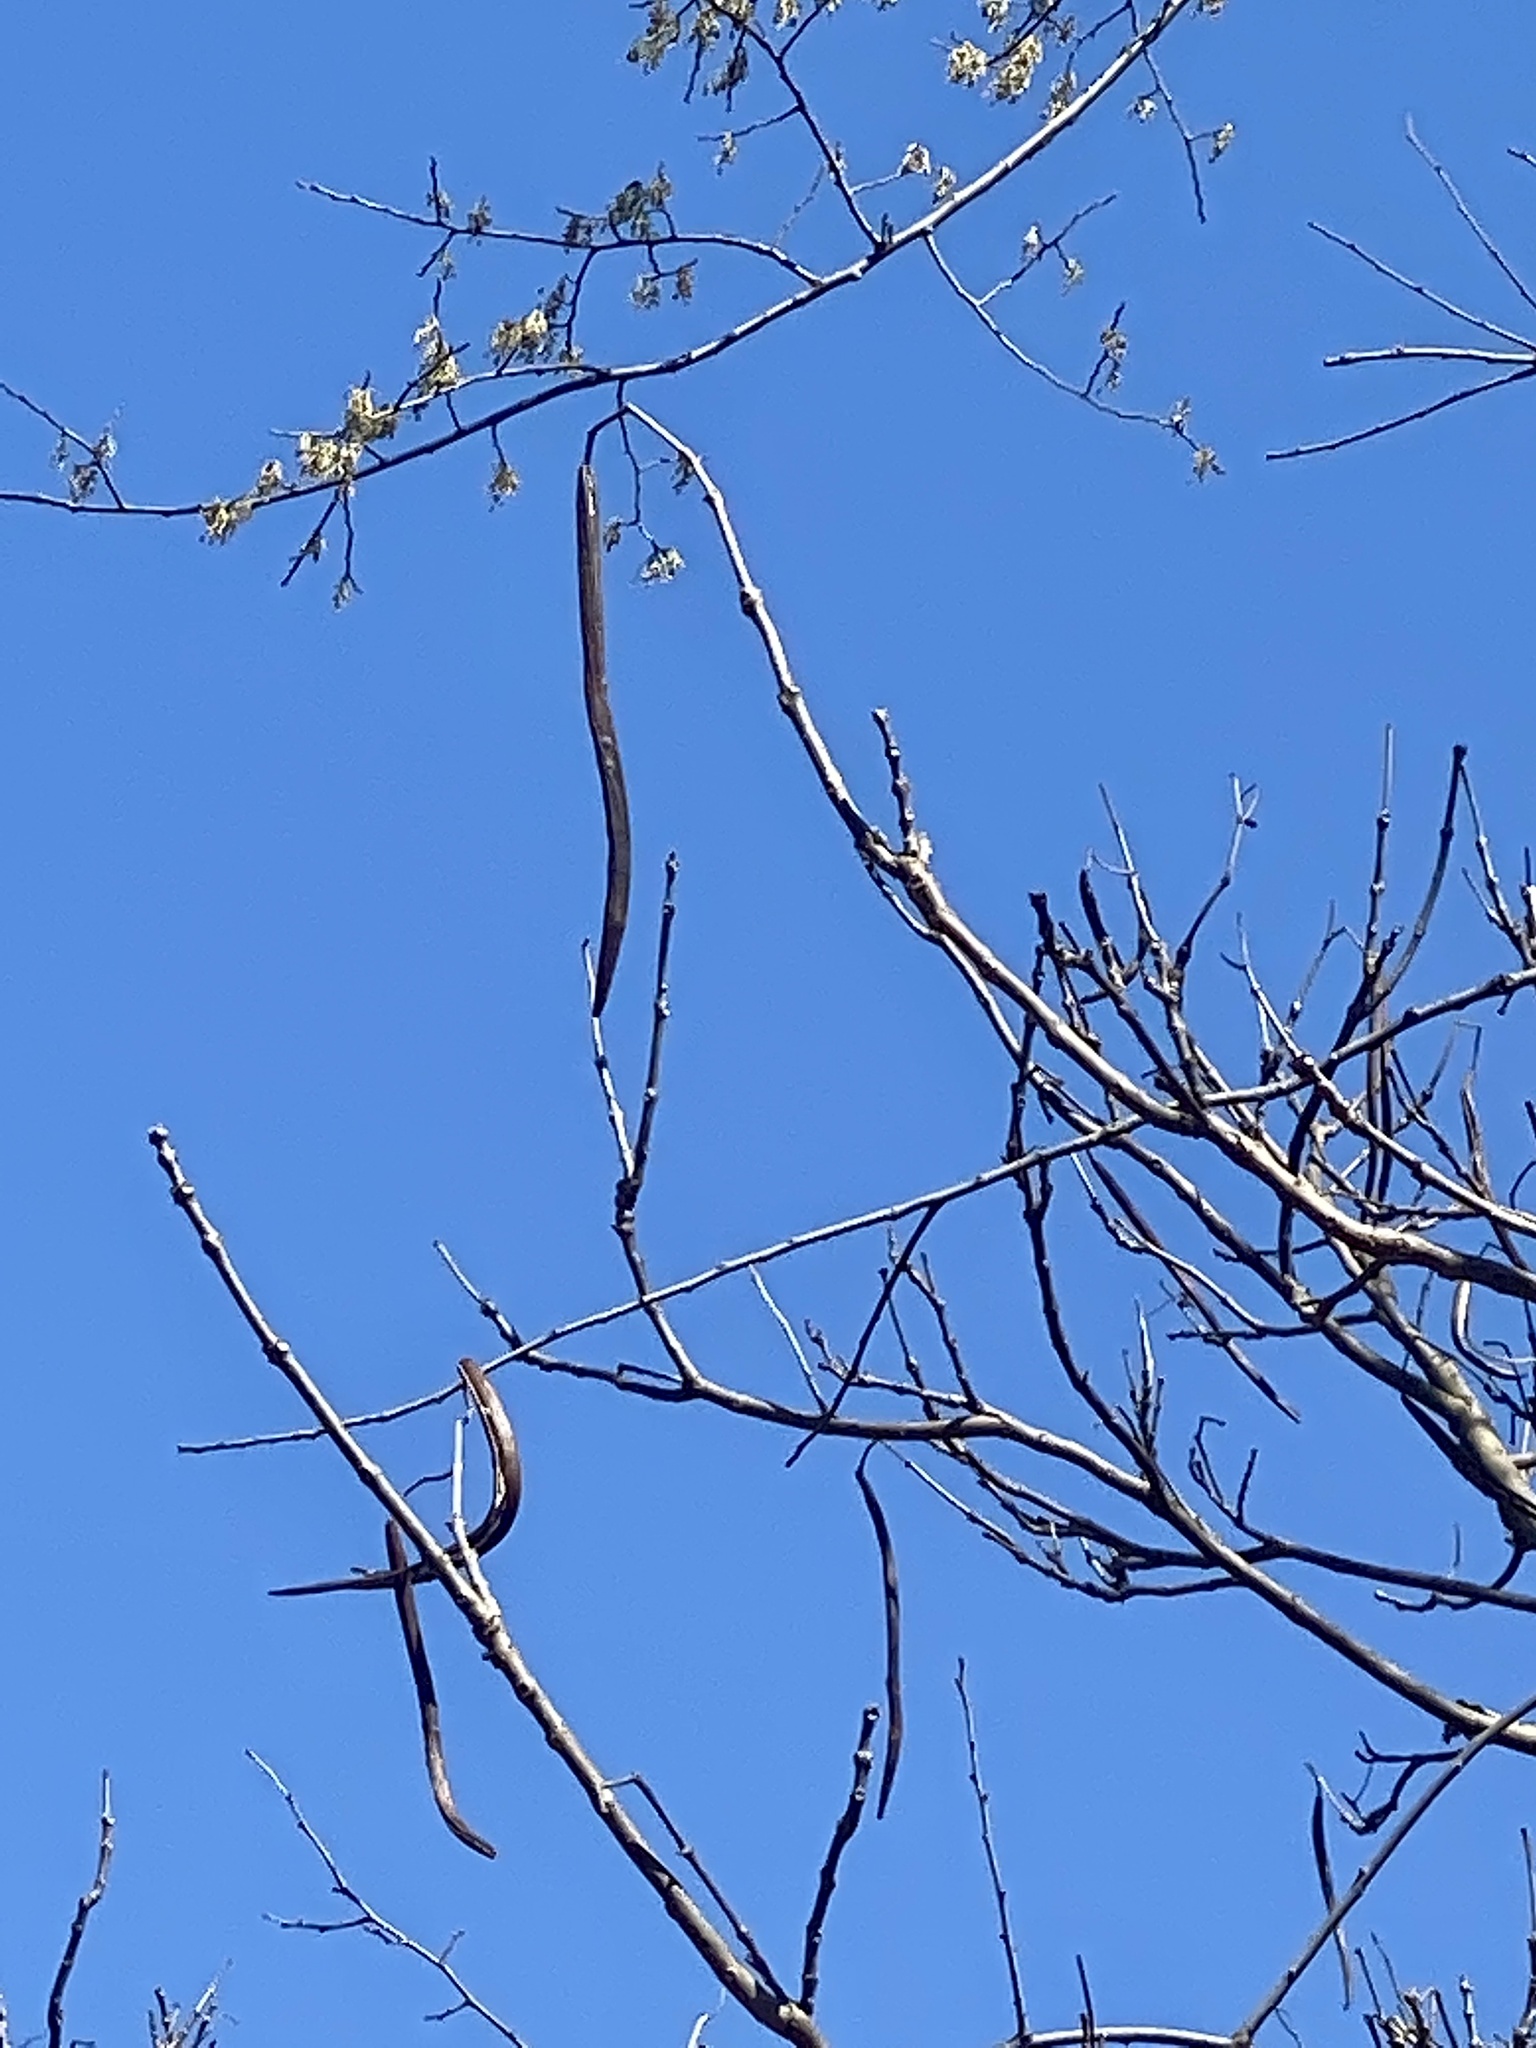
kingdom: Plantae
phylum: Tracheophyta
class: Magnoliopsida
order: Lamiales
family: Bignoniaceae
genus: Catalpa
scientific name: Catalpa
